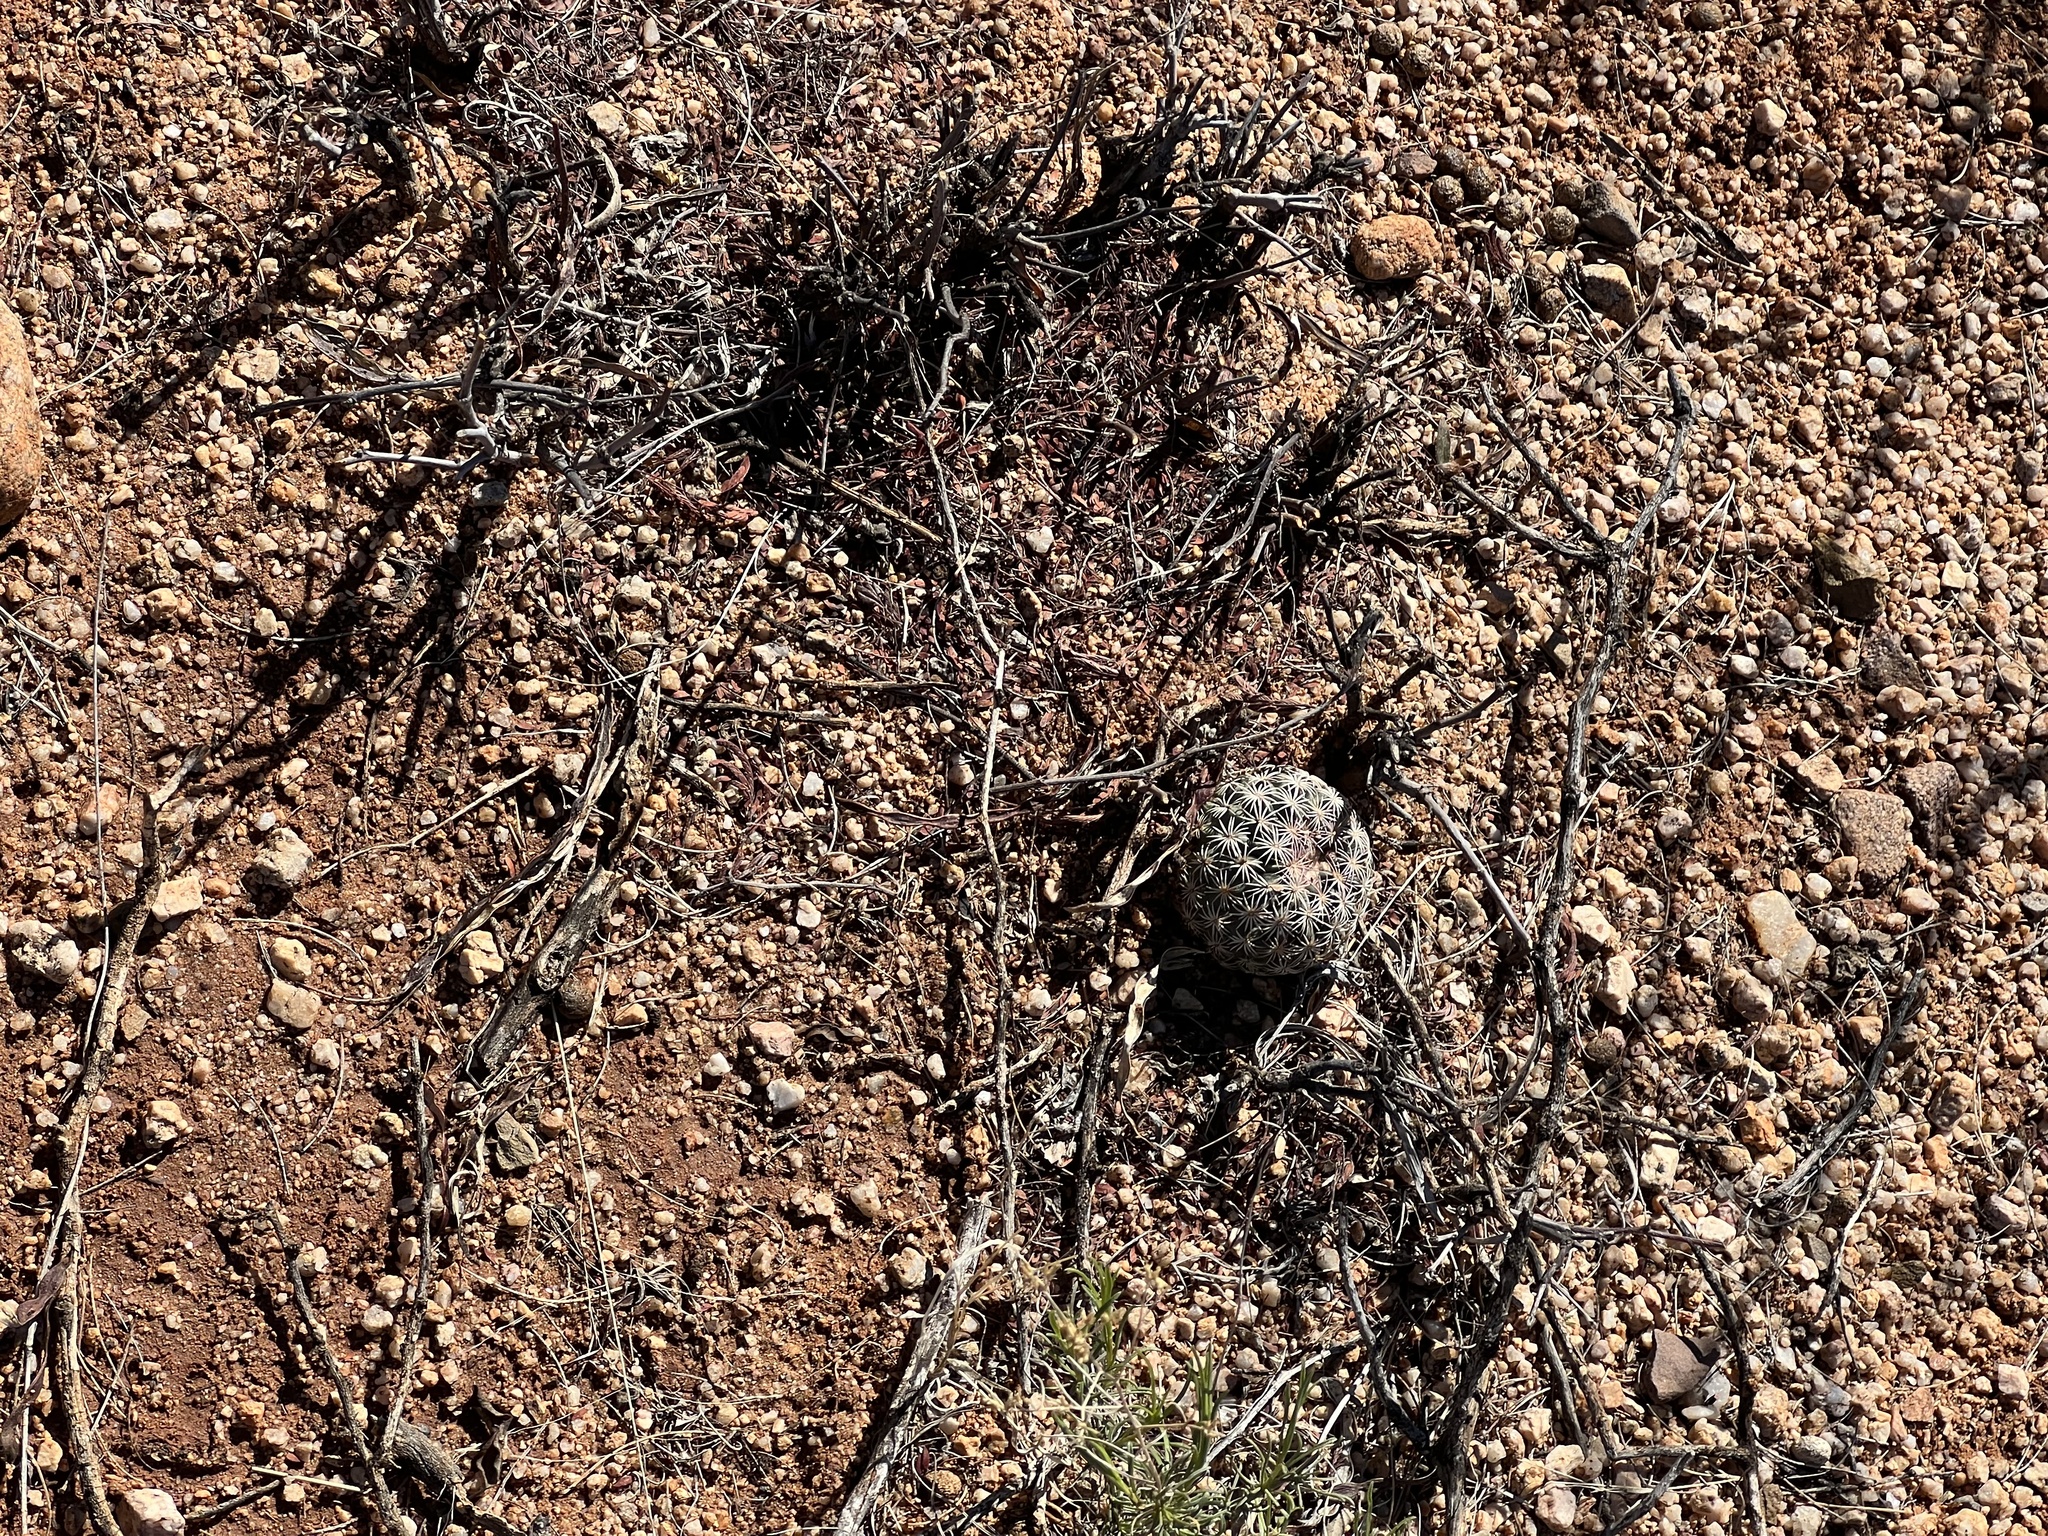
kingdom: Plantae
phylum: Tracheophyta
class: Magnoliopsida
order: Caryophyllales
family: Cactaceae
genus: Sclerocactus
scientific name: Sclerocactus johnsonii
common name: Eight-spine fishhook cactus
